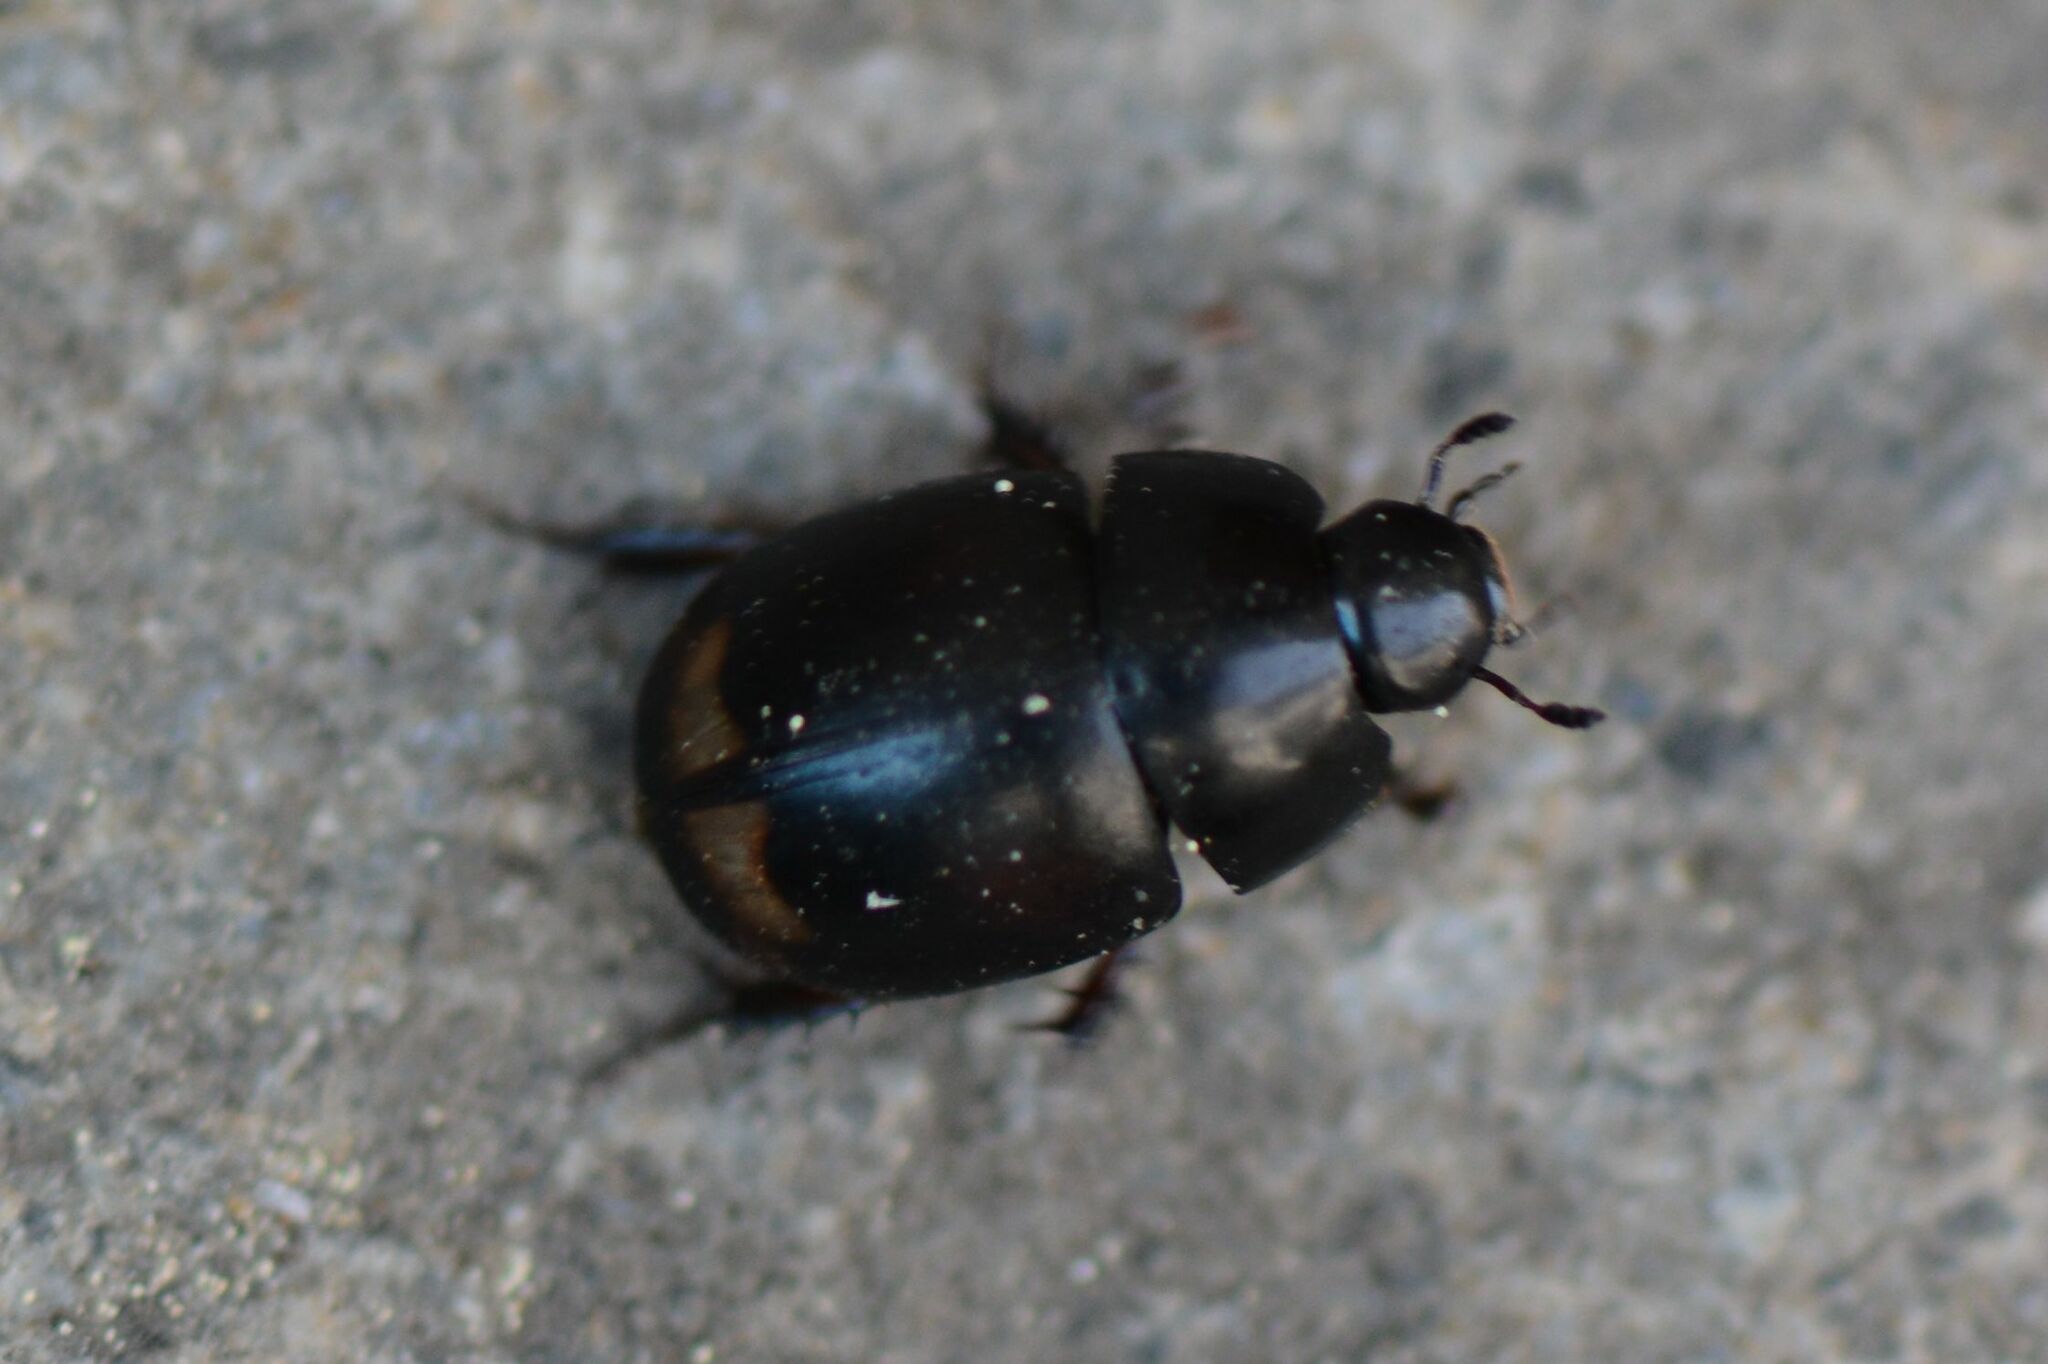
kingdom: Animalia
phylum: Arthropoda
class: Insecta
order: Coleoptera
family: Hydrophilidae
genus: Sphaeridium
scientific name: Sphaeridium lunatum
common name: Water scavenger beetle
